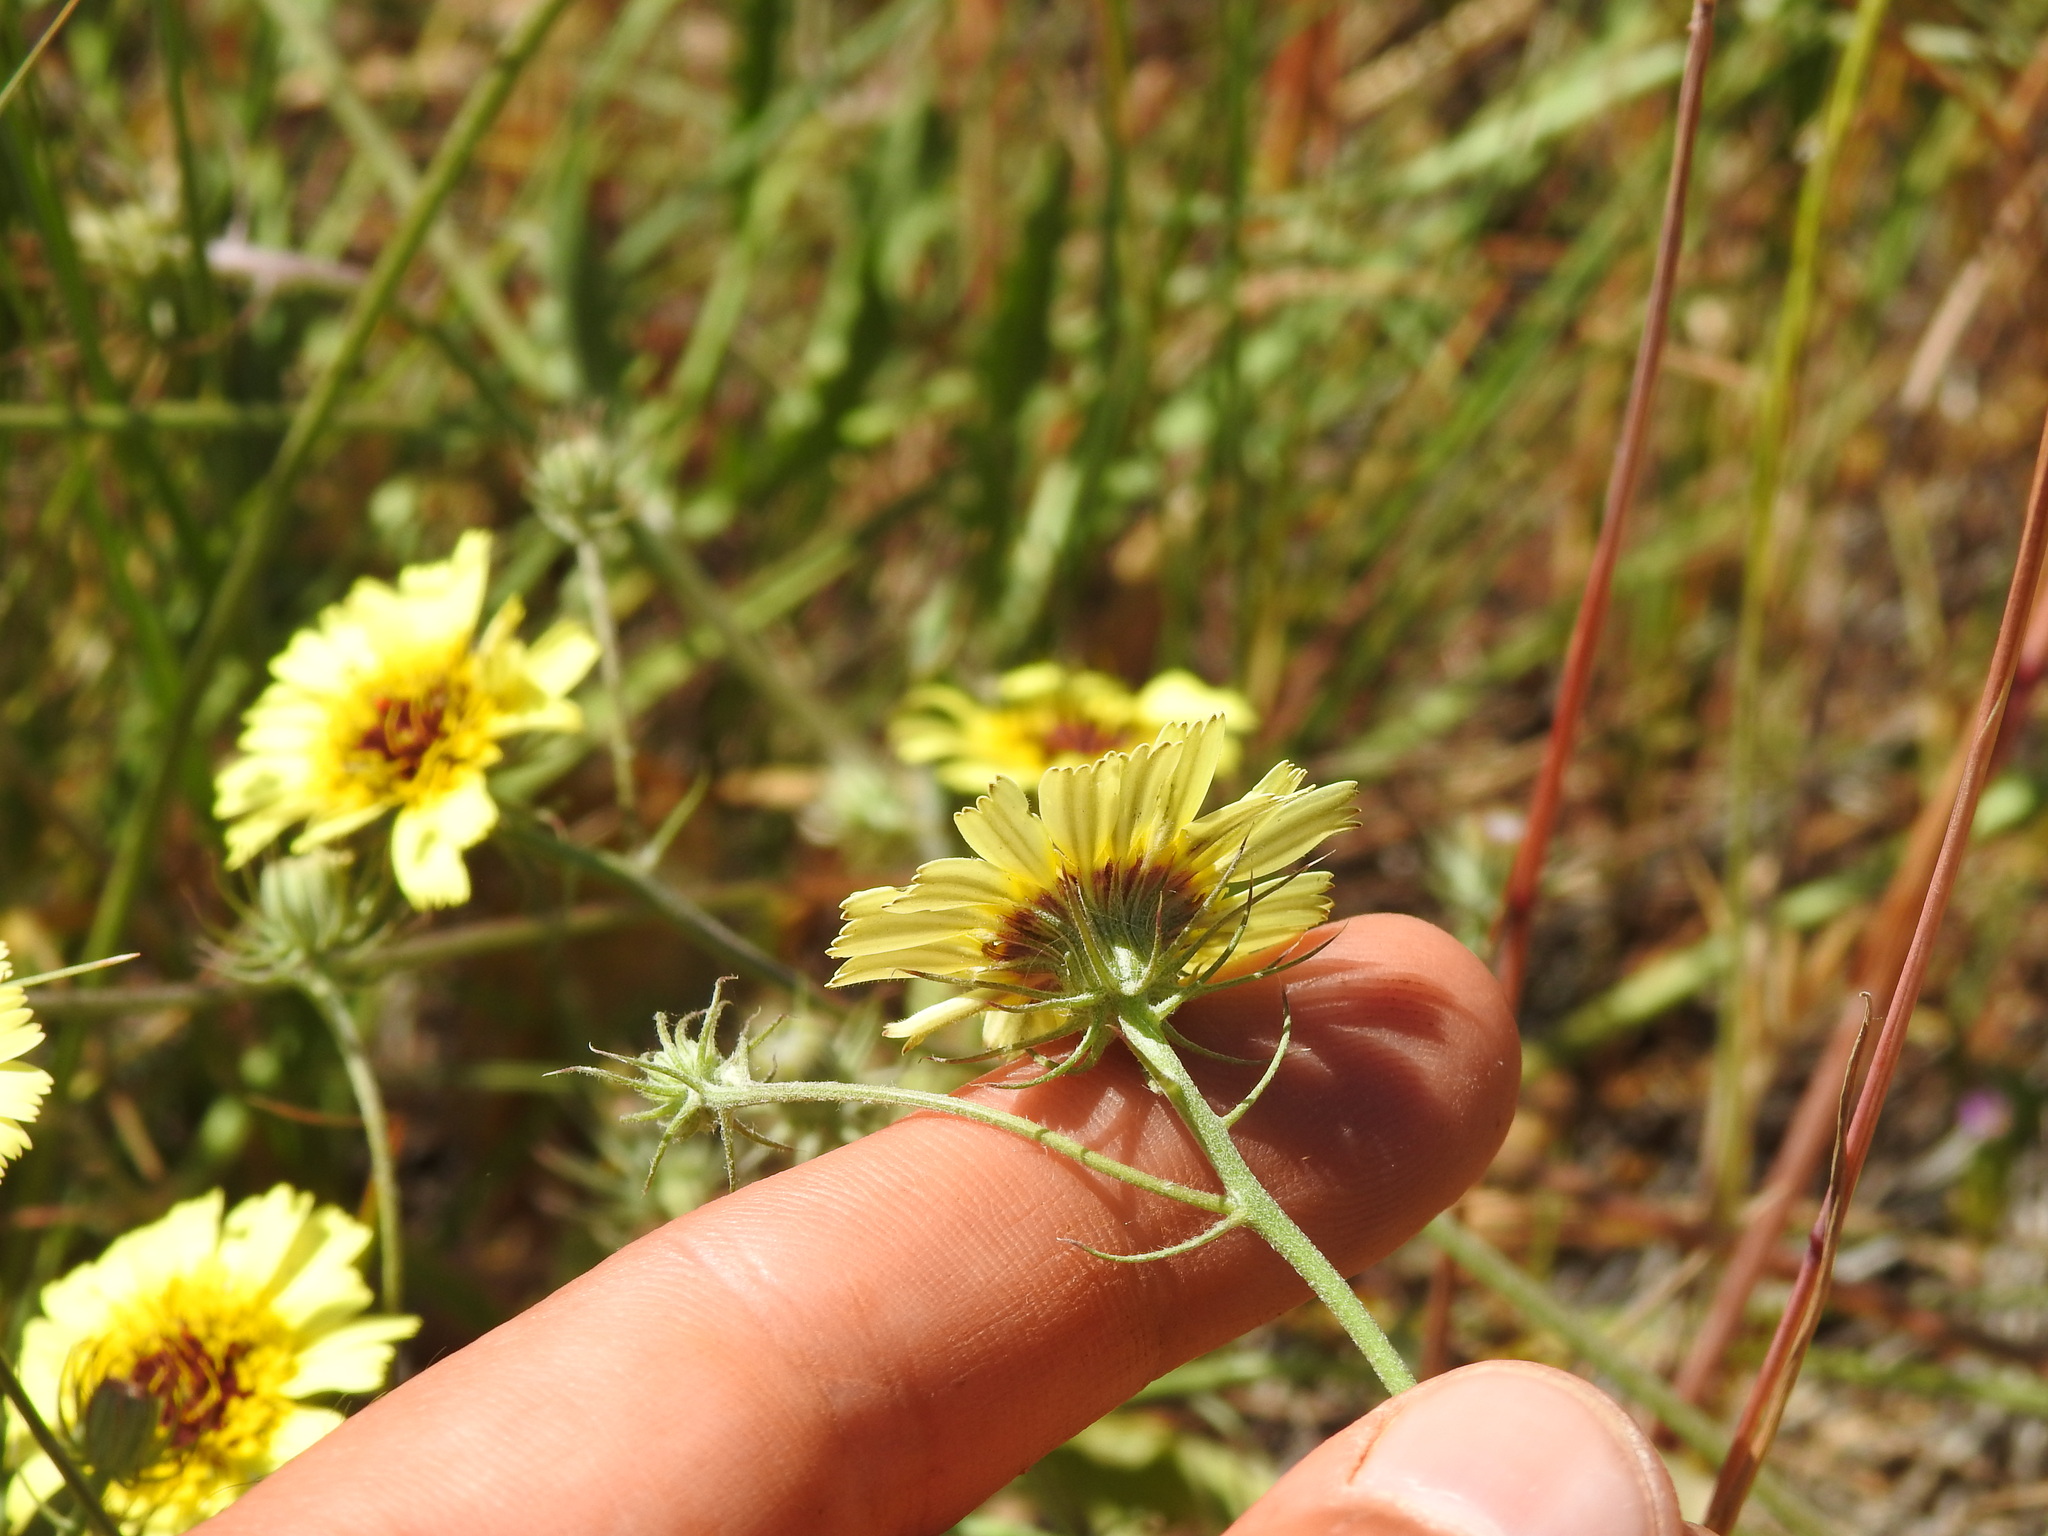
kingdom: Plantae
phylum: Tracheophyta
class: Magnoliopsida
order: Asterales
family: Asteraceae
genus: Tolpis
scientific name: Tolpis barbata
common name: Yellow hawkweed
